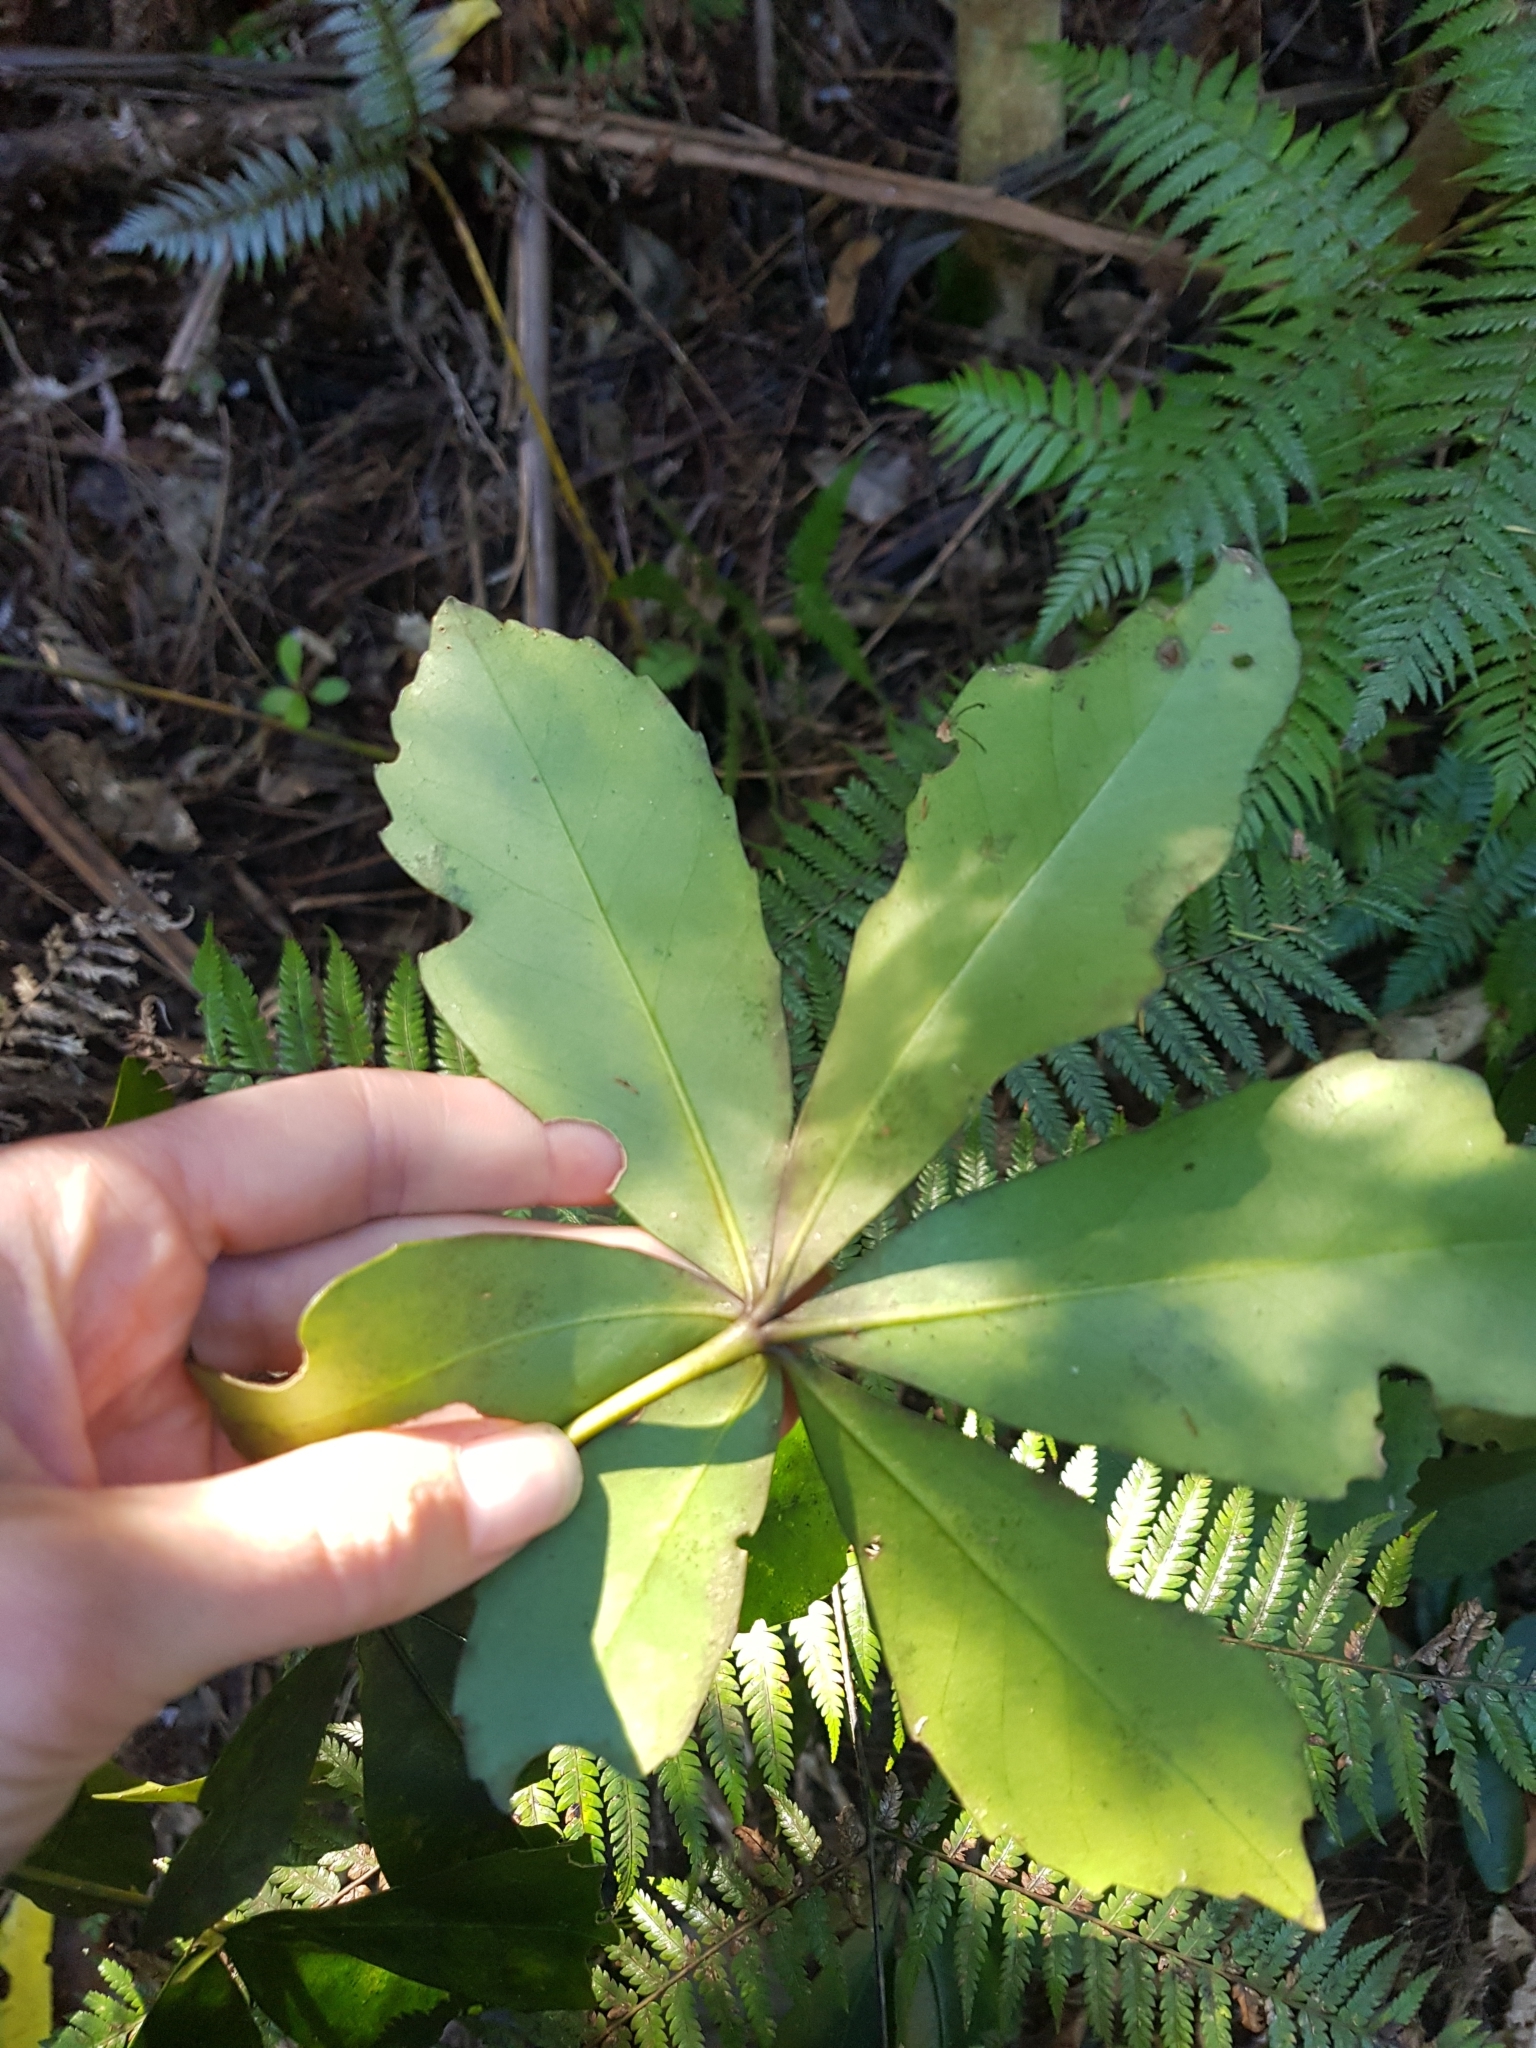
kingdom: Plantae
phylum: Tracheophyta
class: Magnoliopsida
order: Apiales
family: Araliaceae
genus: Pseudopanax
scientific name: Pseudopanax lessonii
